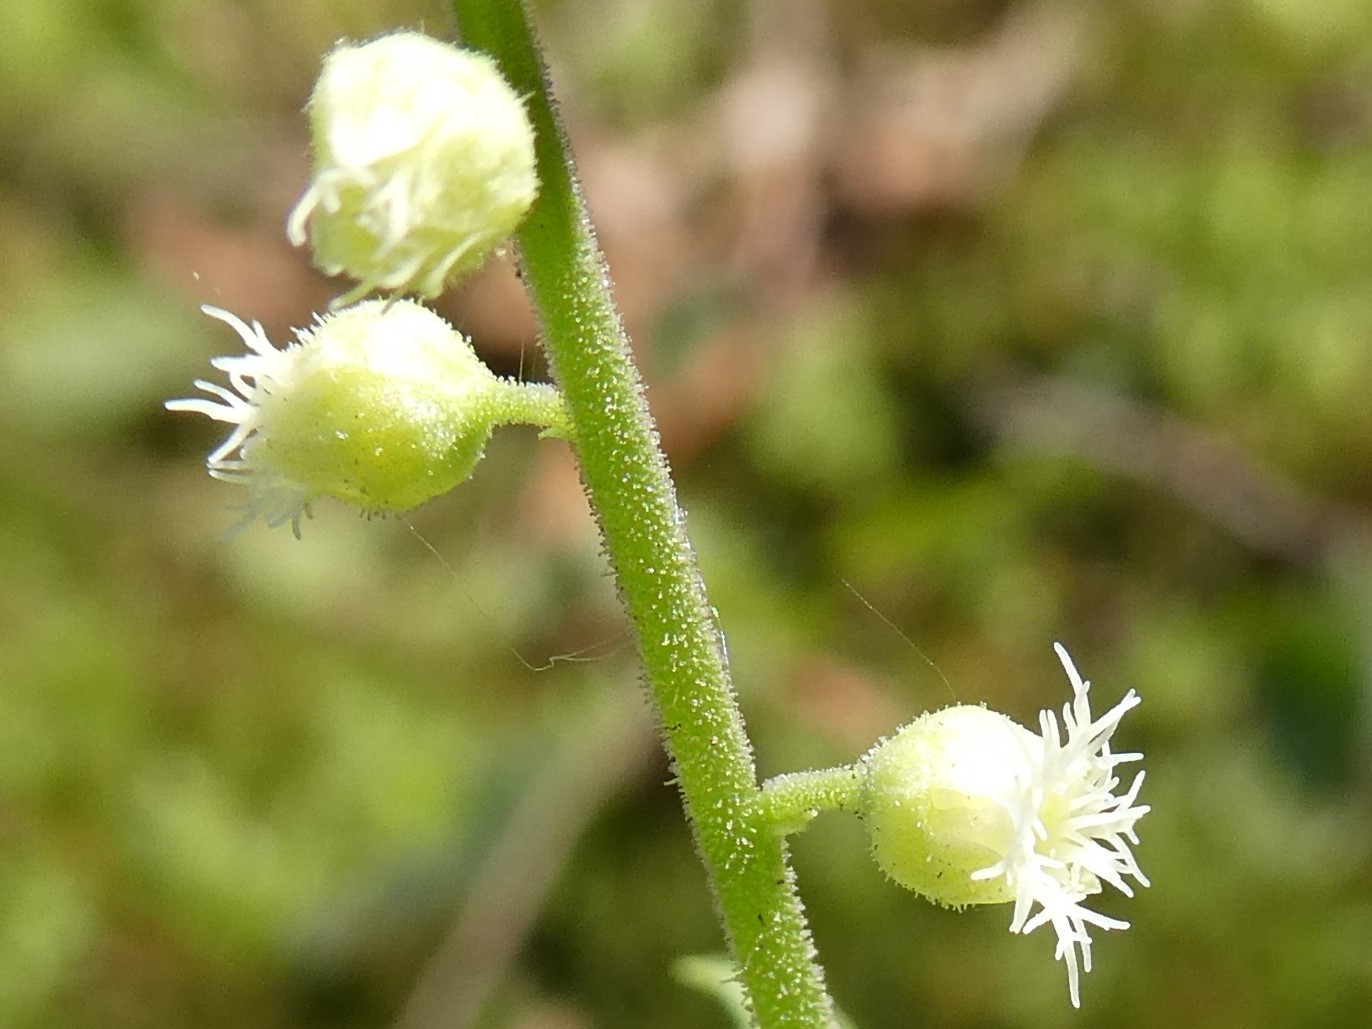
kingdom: Plantae
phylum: Tracheophyta
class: Magnoliopsida
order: Saxifragales
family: Saxifragaceae
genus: Mitella
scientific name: Mitella diphylla
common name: Coolwort
